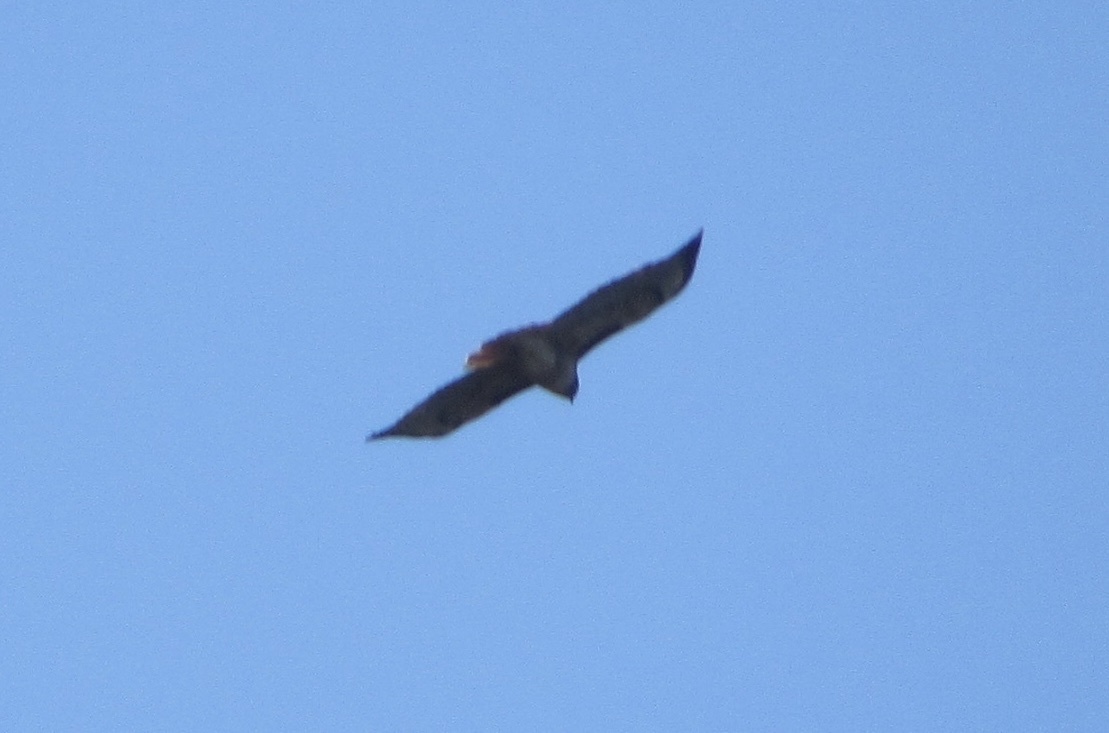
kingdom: Animalia
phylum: Chordata
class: Aves
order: Accipitriformes
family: Accipitridae
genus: Buteo
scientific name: Buteo jamaicensis
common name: Red-tailed hawk
